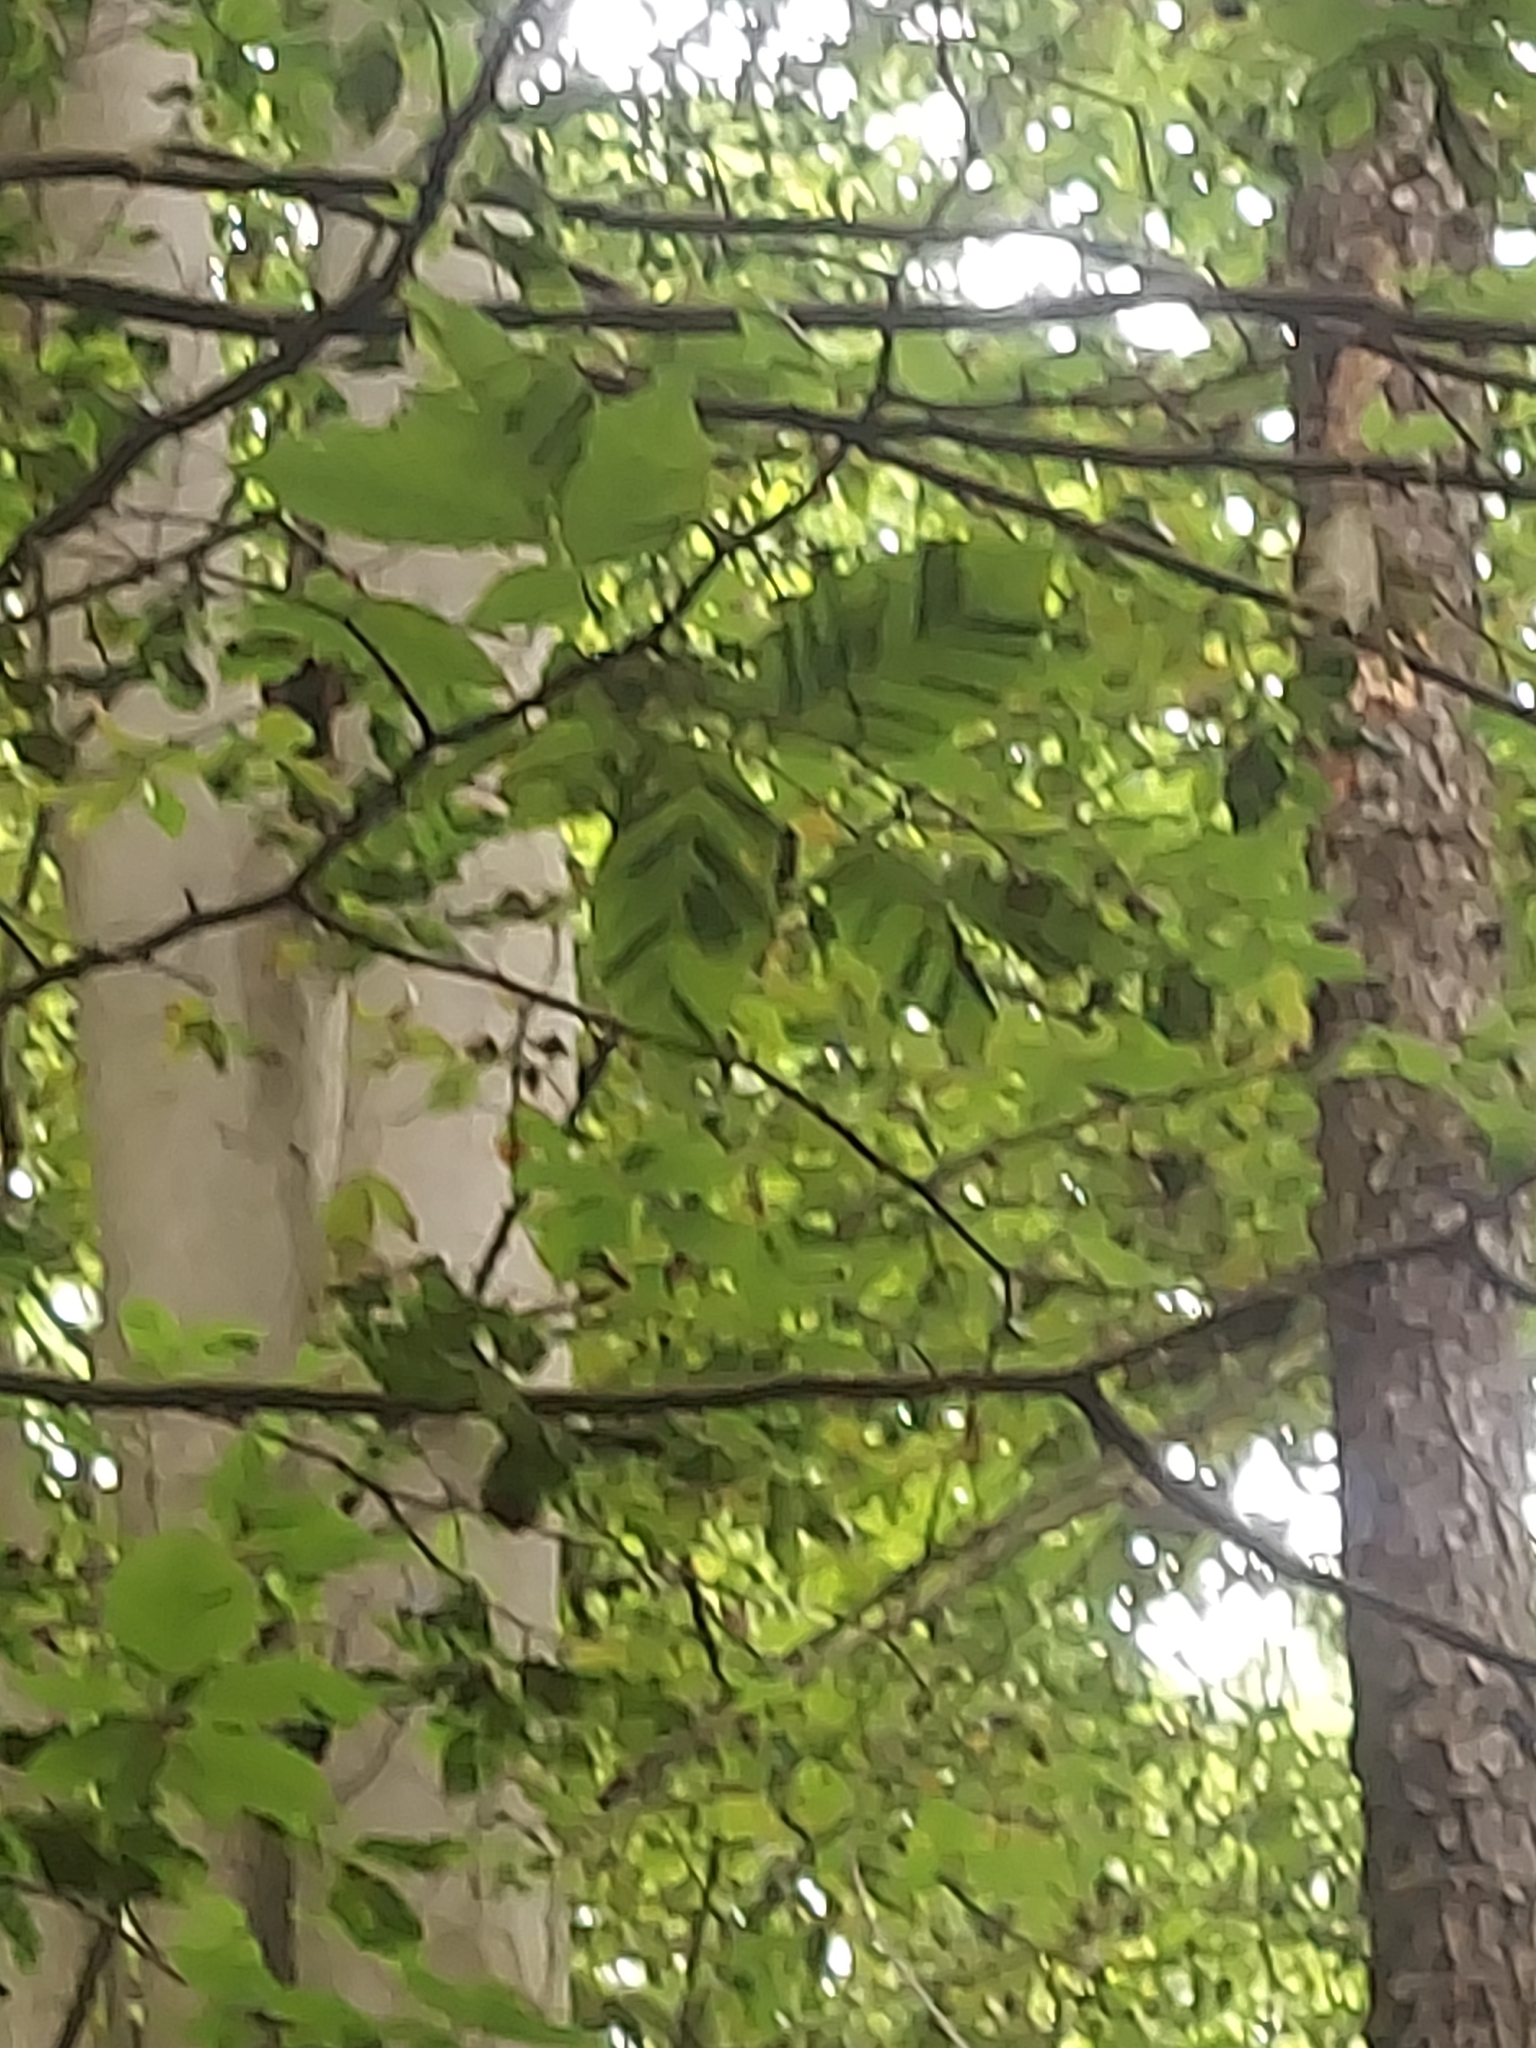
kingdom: Animalia
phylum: Nematoda
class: Chromadorea
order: Rhabditida
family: Anguinidae
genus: Litylenchus
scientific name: Litylenchus crenatae
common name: Beech leaf disease
